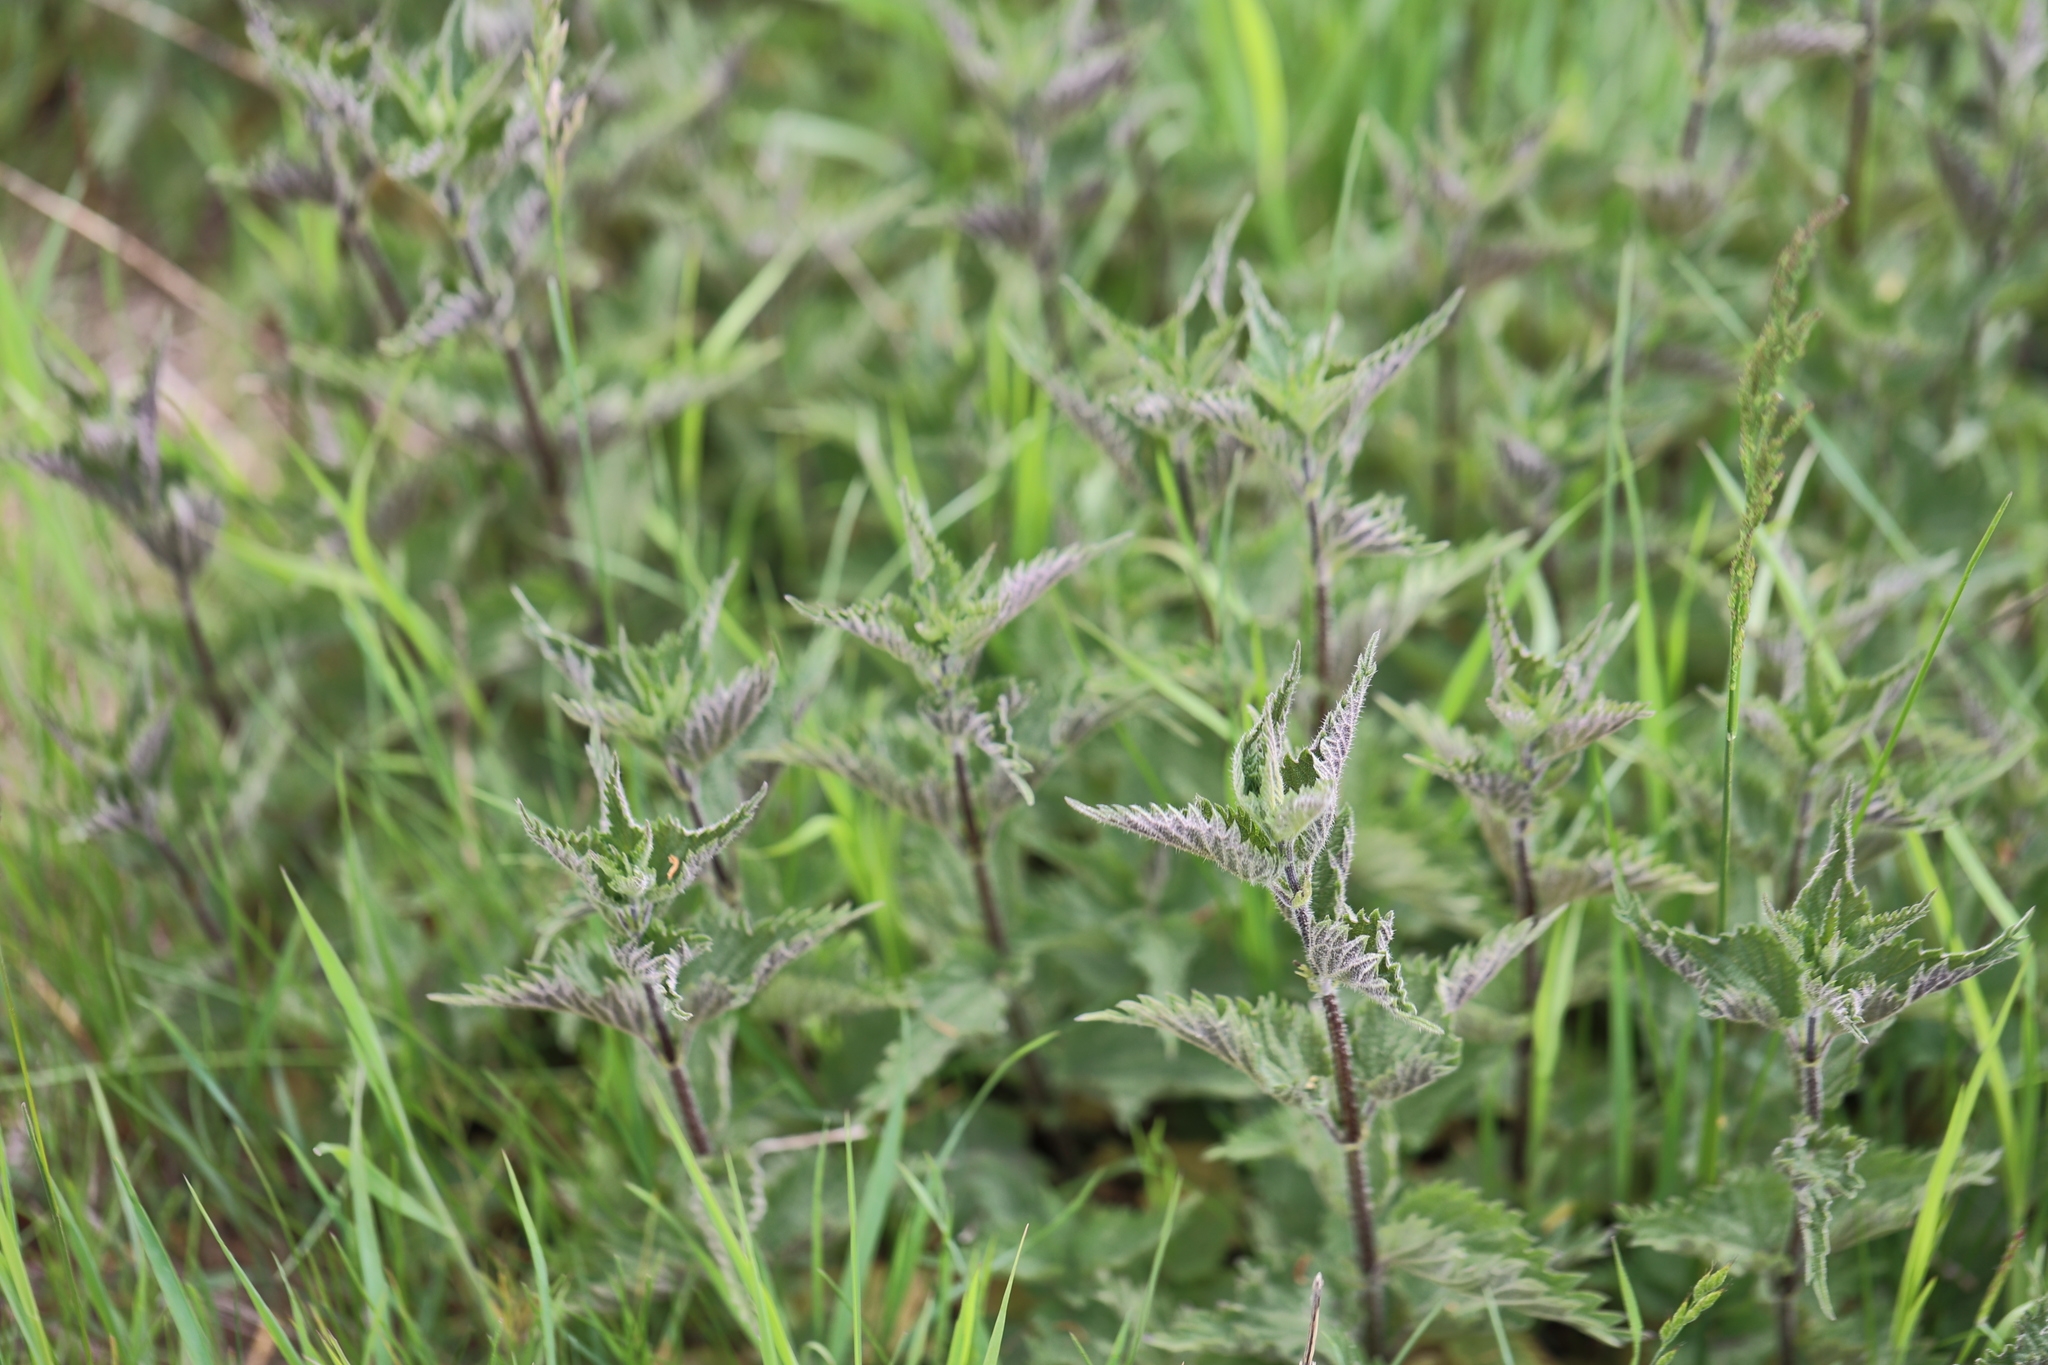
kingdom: Plantae
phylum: Tracheophyta
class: Magnoliopsida
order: Rosales
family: Urticaceae
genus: Urtica
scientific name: Urtica dioica
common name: Common nettle
